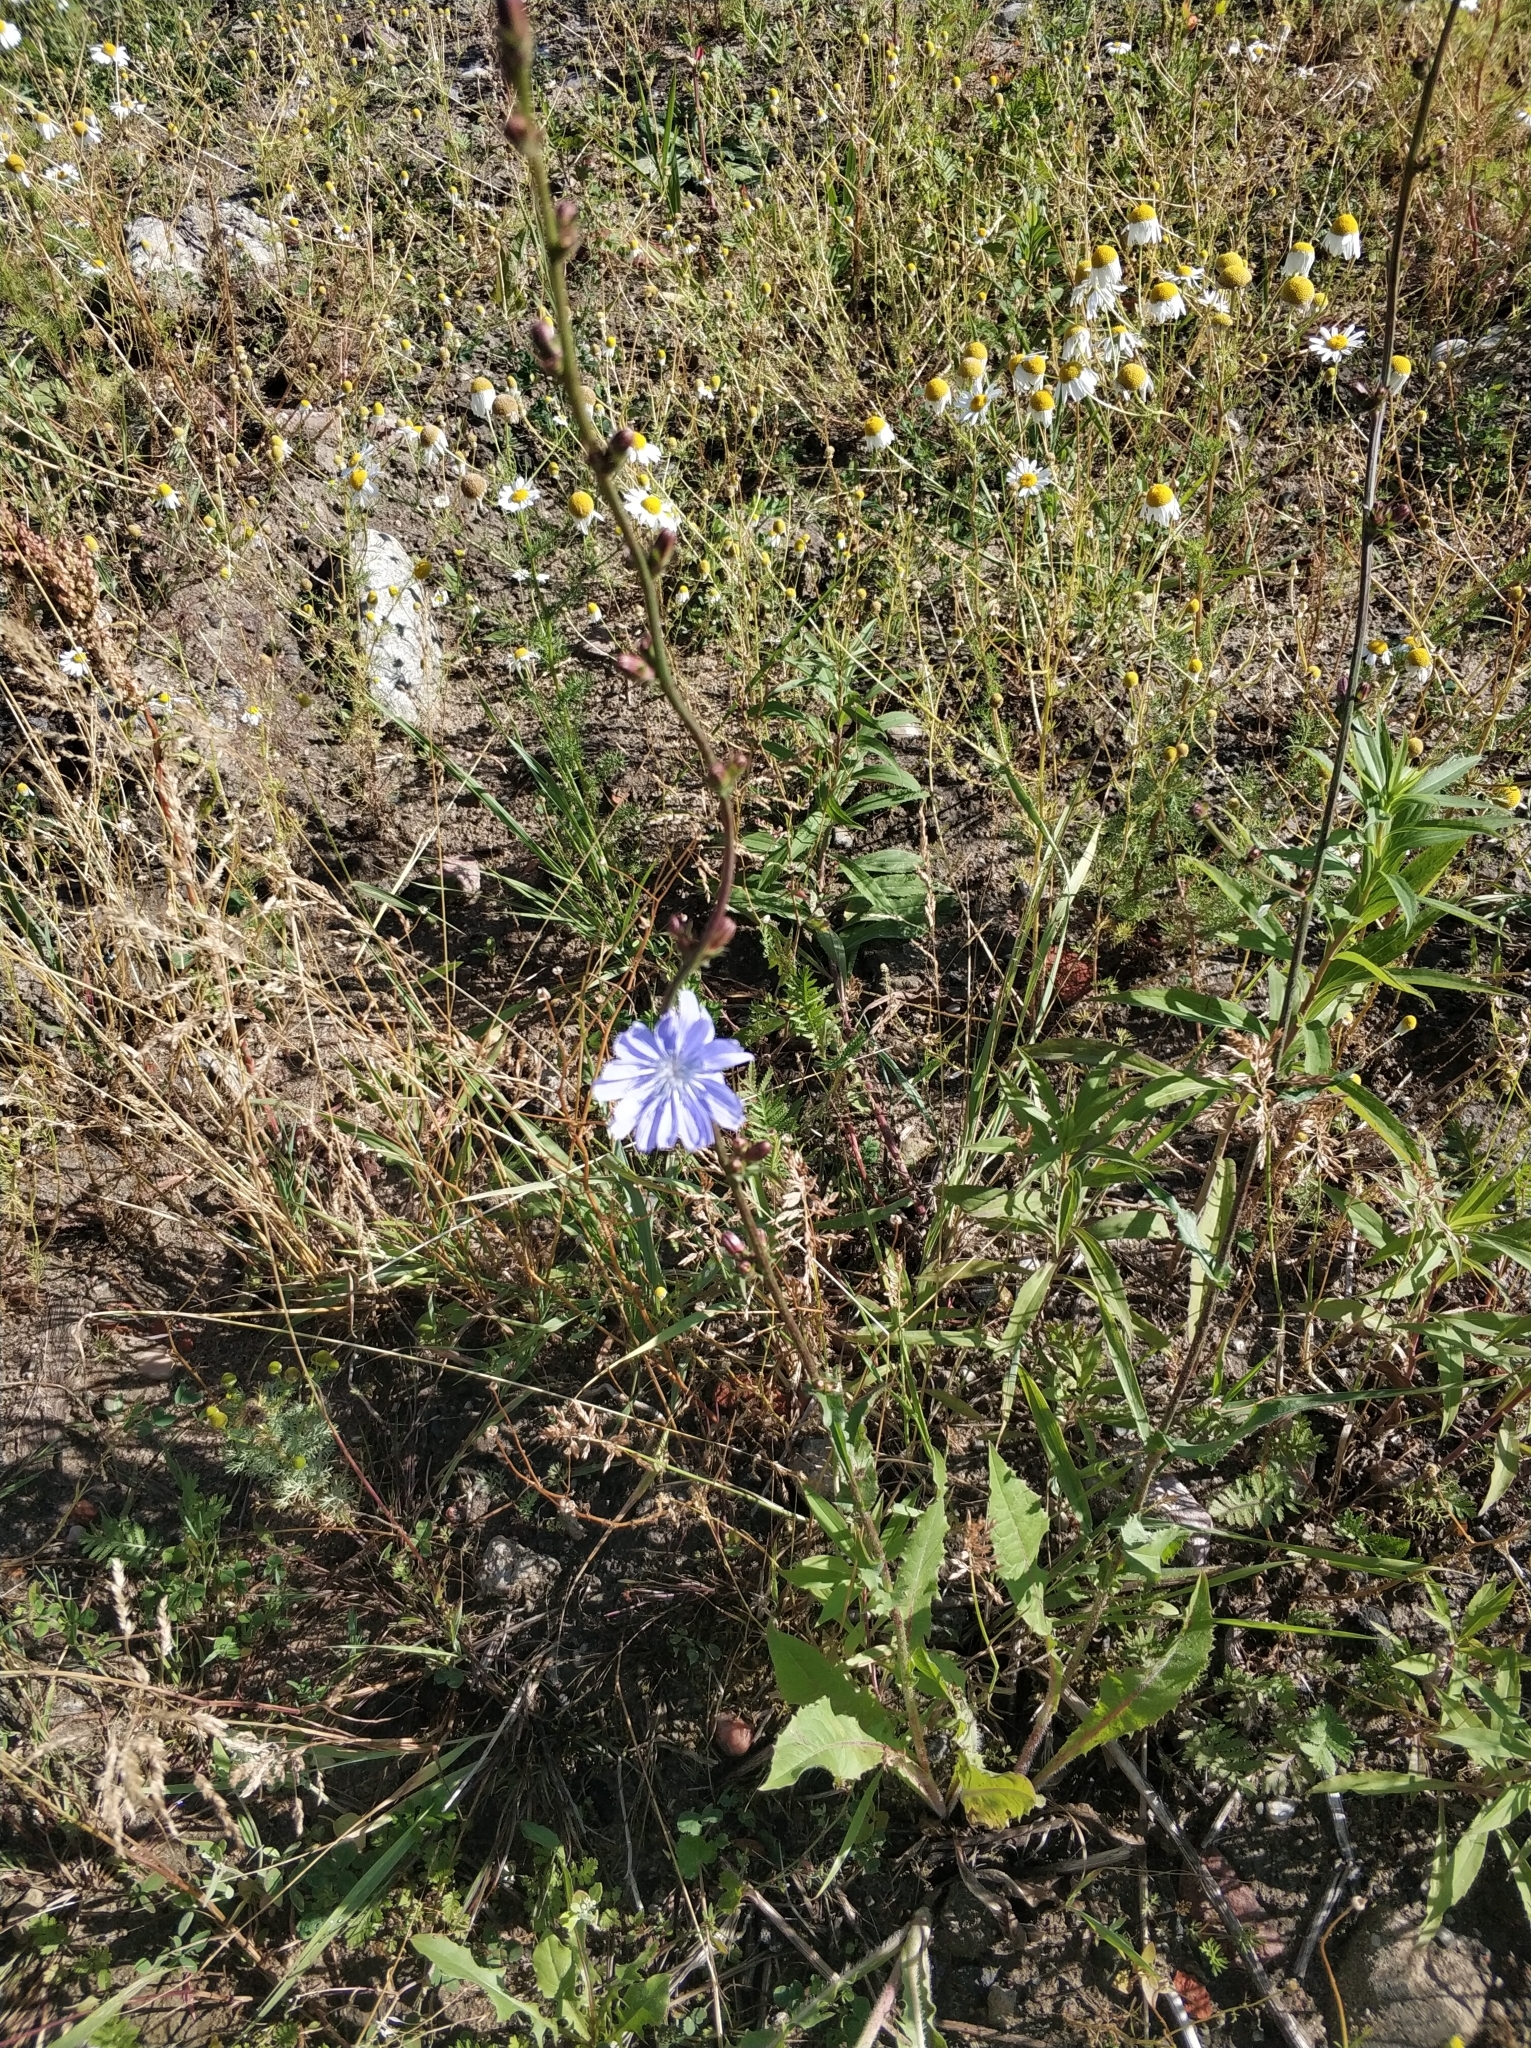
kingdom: Plantae
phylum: Tracheophyta
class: Magnoliopsida
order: Asterales
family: Asteraceae
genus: Cichorium
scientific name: Cichorium intybus
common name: Chicory
